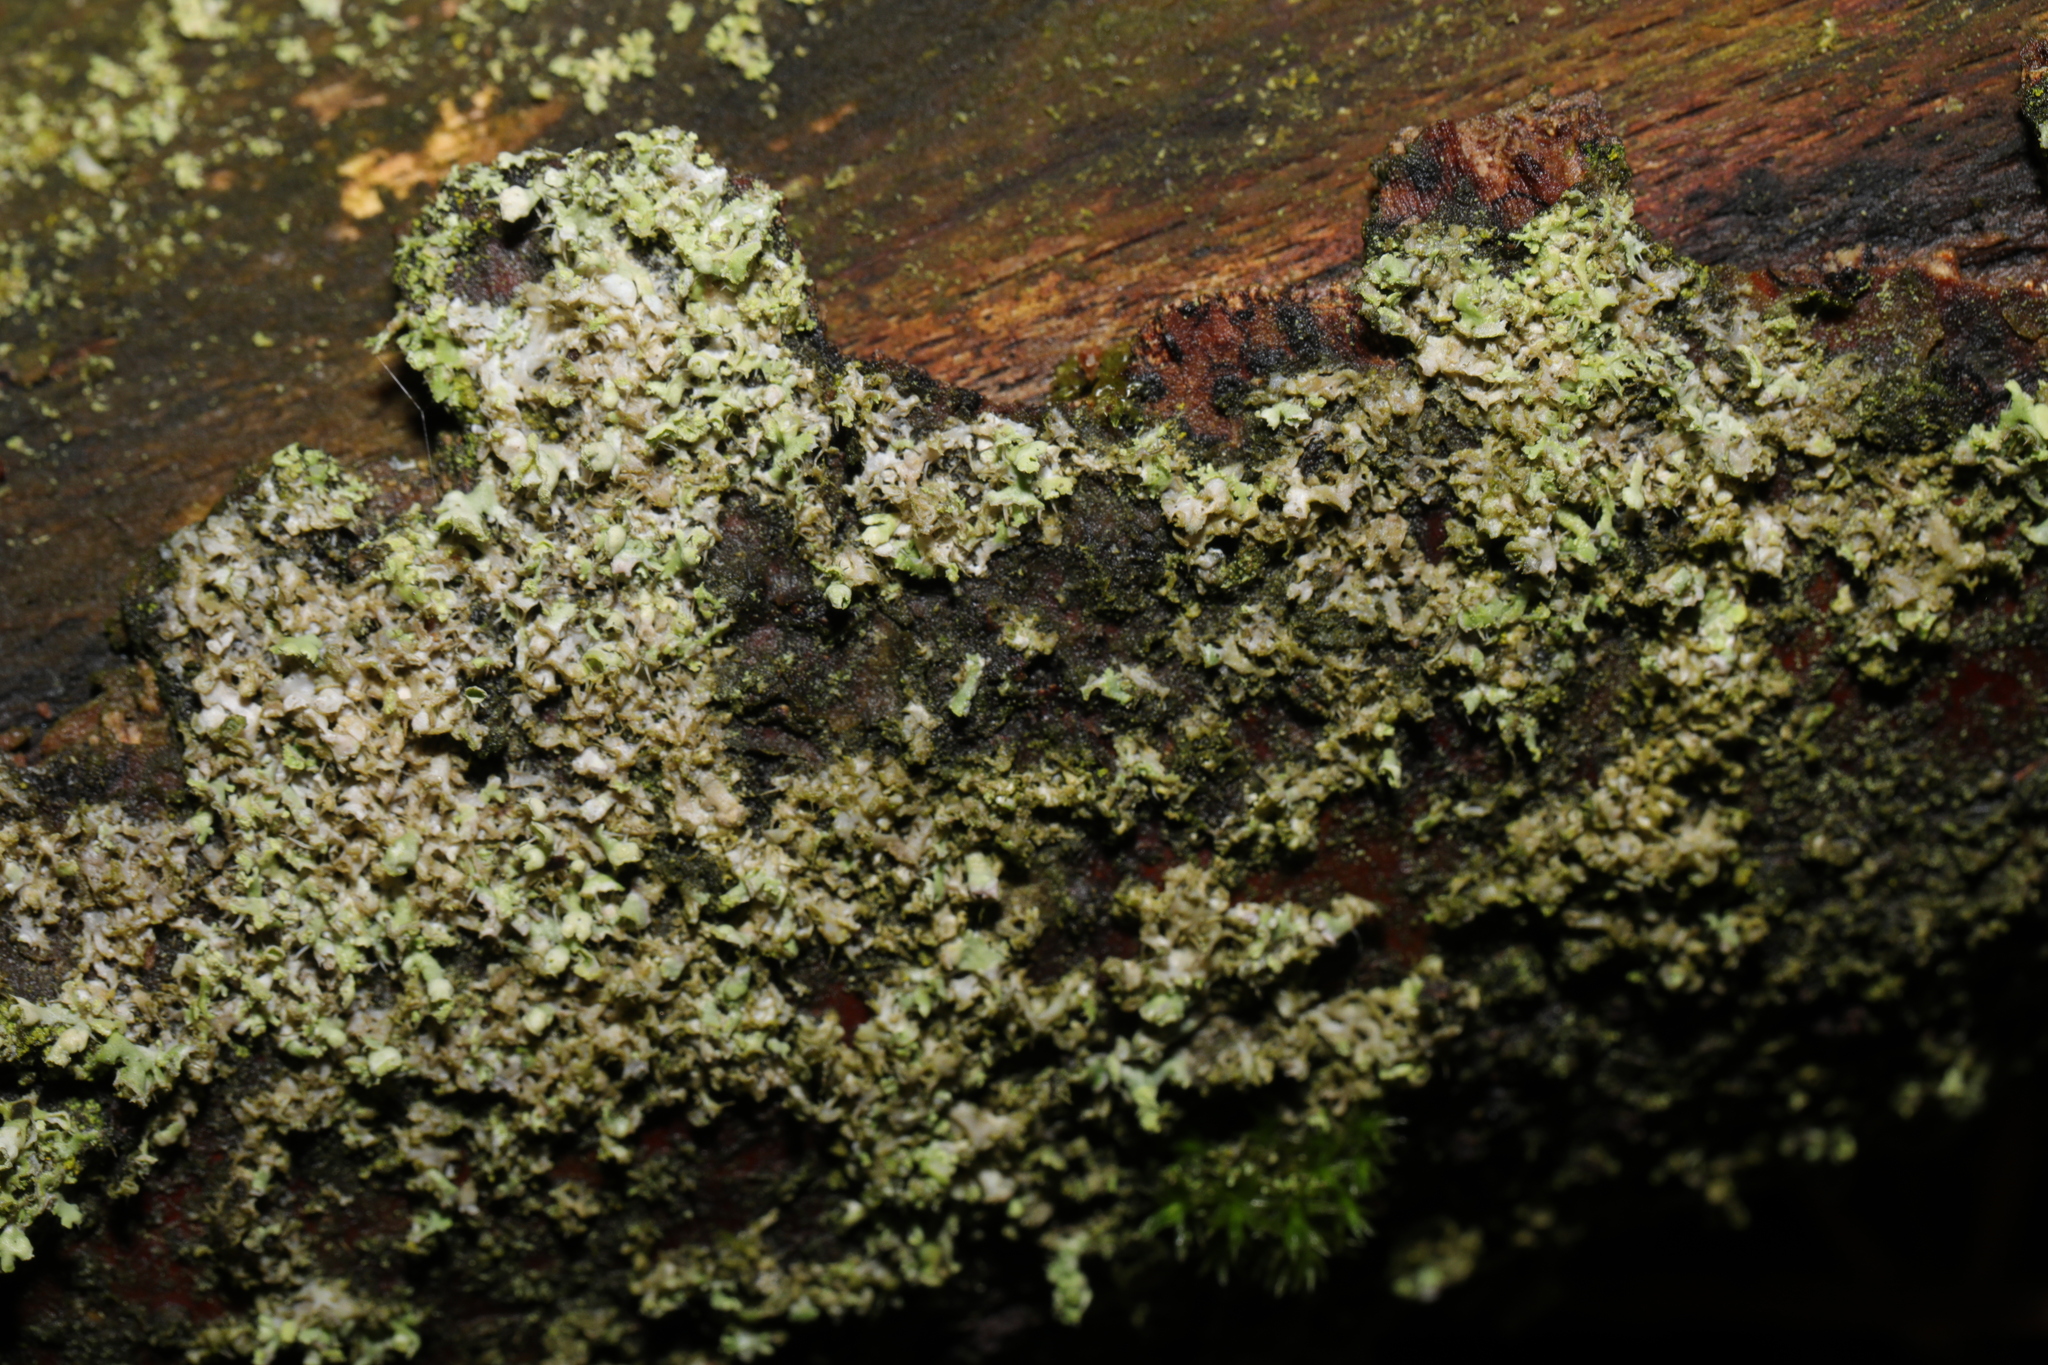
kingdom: Fungi
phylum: Ascomycota
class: Lecanoromycetes
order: Caliciales
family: Physciaceae
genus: Physcia
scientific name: Physcia adscendens
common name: Hooded rosette lichen
